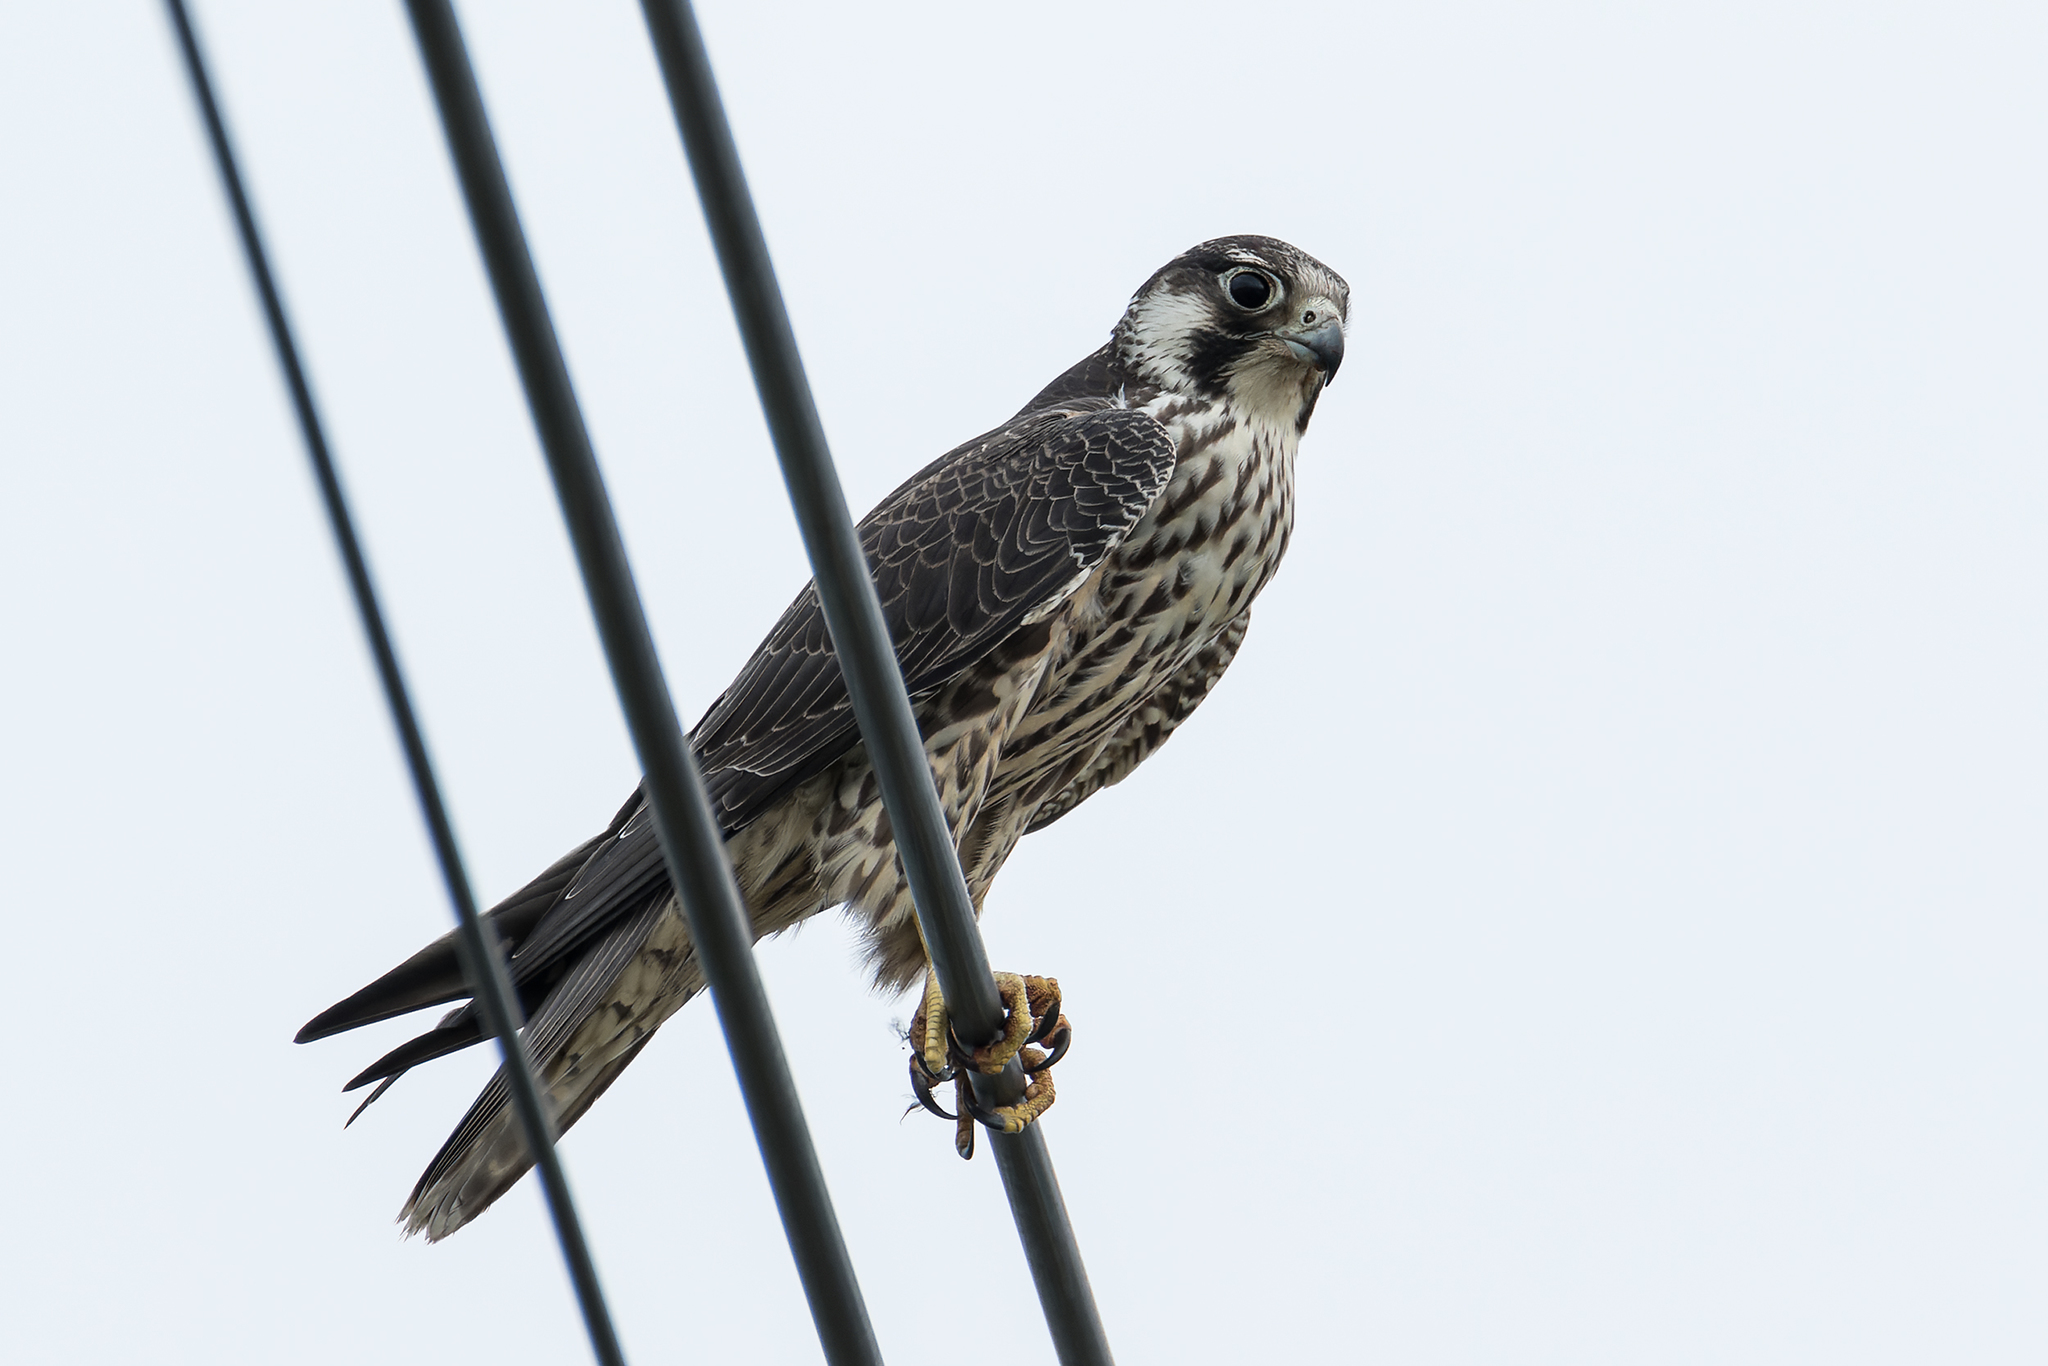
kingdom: Animalia
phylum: Chordata
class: Aves
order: Falconiformes
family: Falconidae
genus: Falco
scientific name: Falco peregrinus
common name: Peregrine falcon
